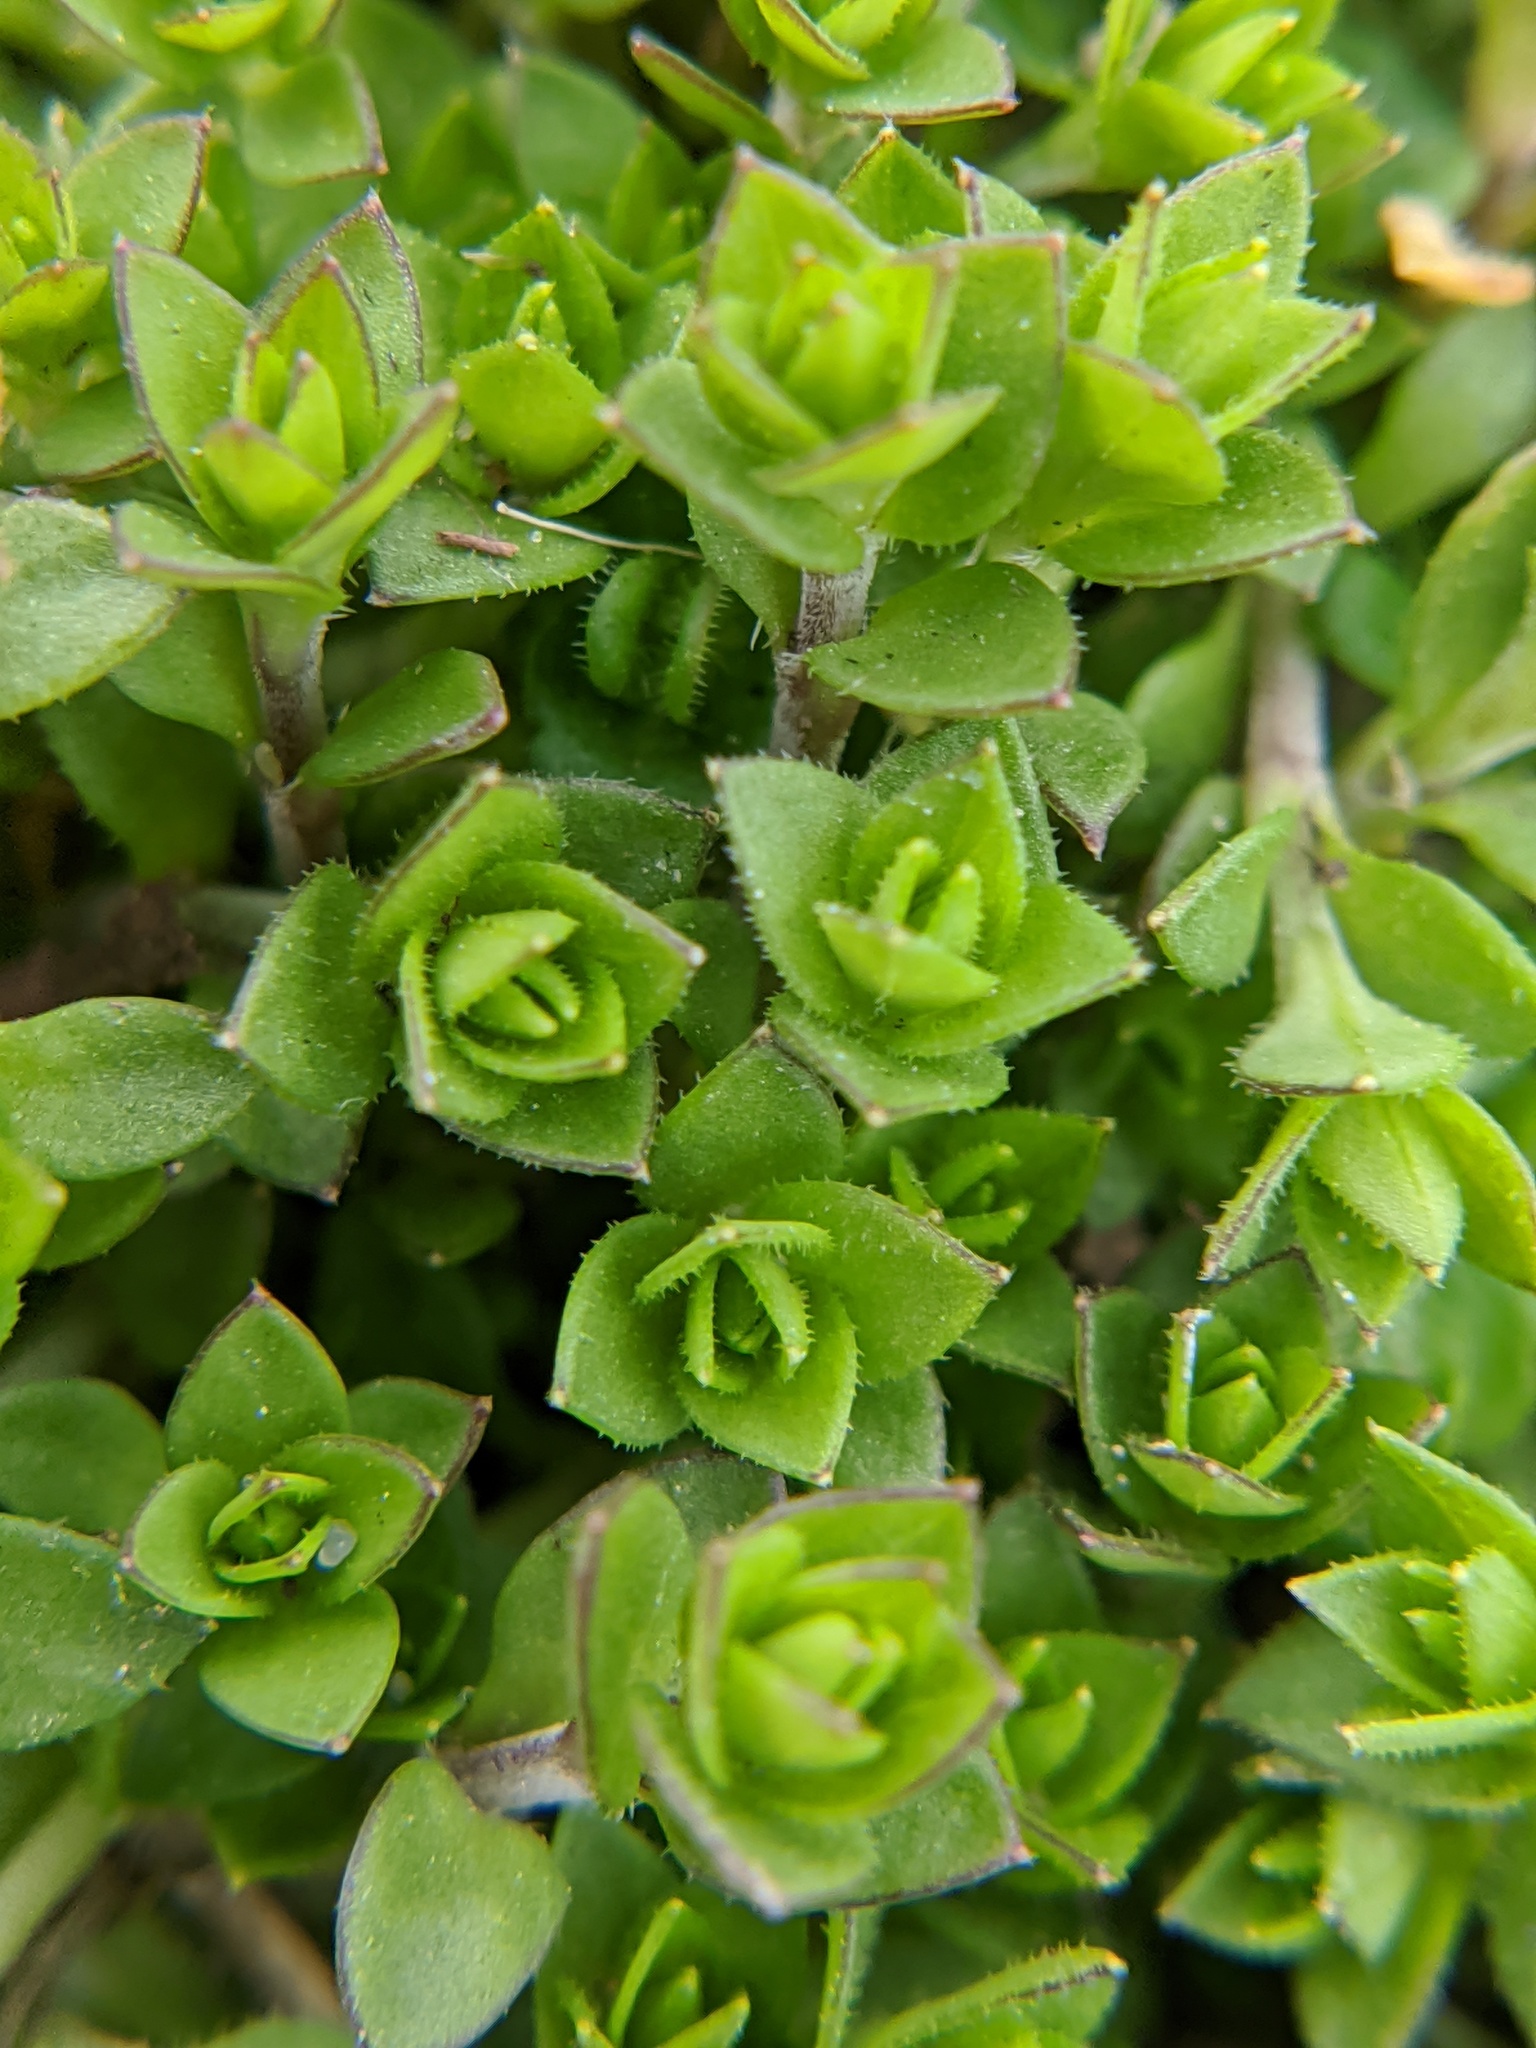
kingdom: Plantae
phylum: Tracheophyta
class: Magnoliopsida
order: Caryophyllales
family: Caryophyllaceae
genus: Arenaria
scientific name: Arenaria serpyllifolia
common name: Thyme-leaved sandwort
